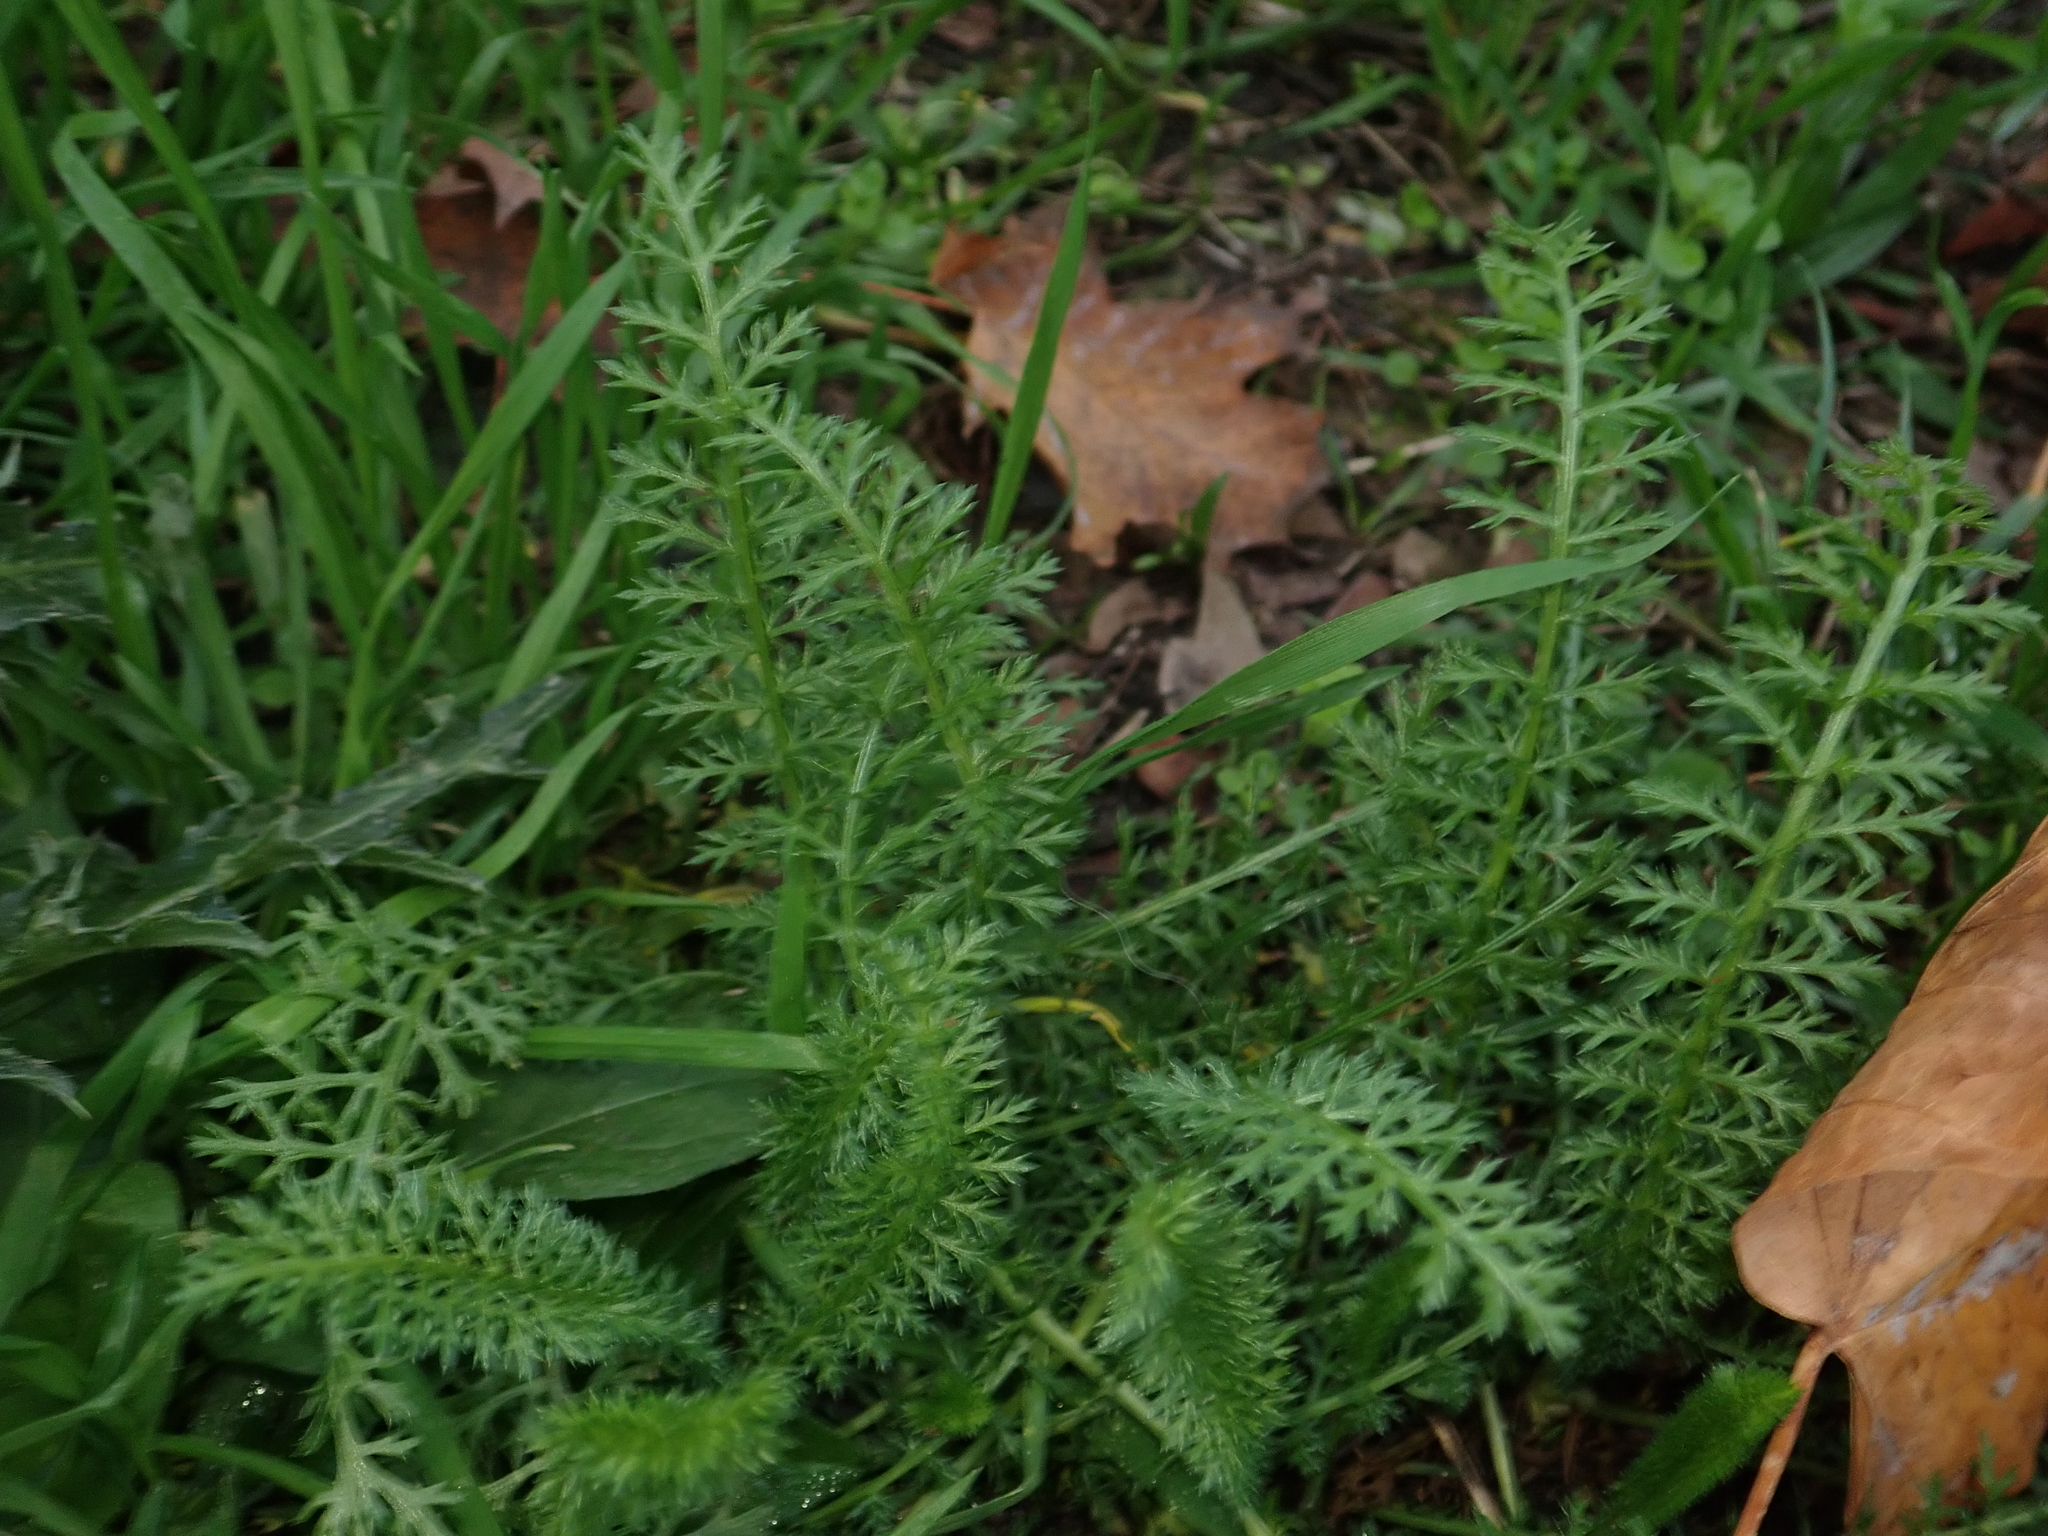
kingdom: Plantae
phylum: Tracheophyta
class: Magnoliopsida
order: Asterales
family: Asteraceae
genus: Achillea
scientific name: Achillea millefolium
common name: Yarrow
